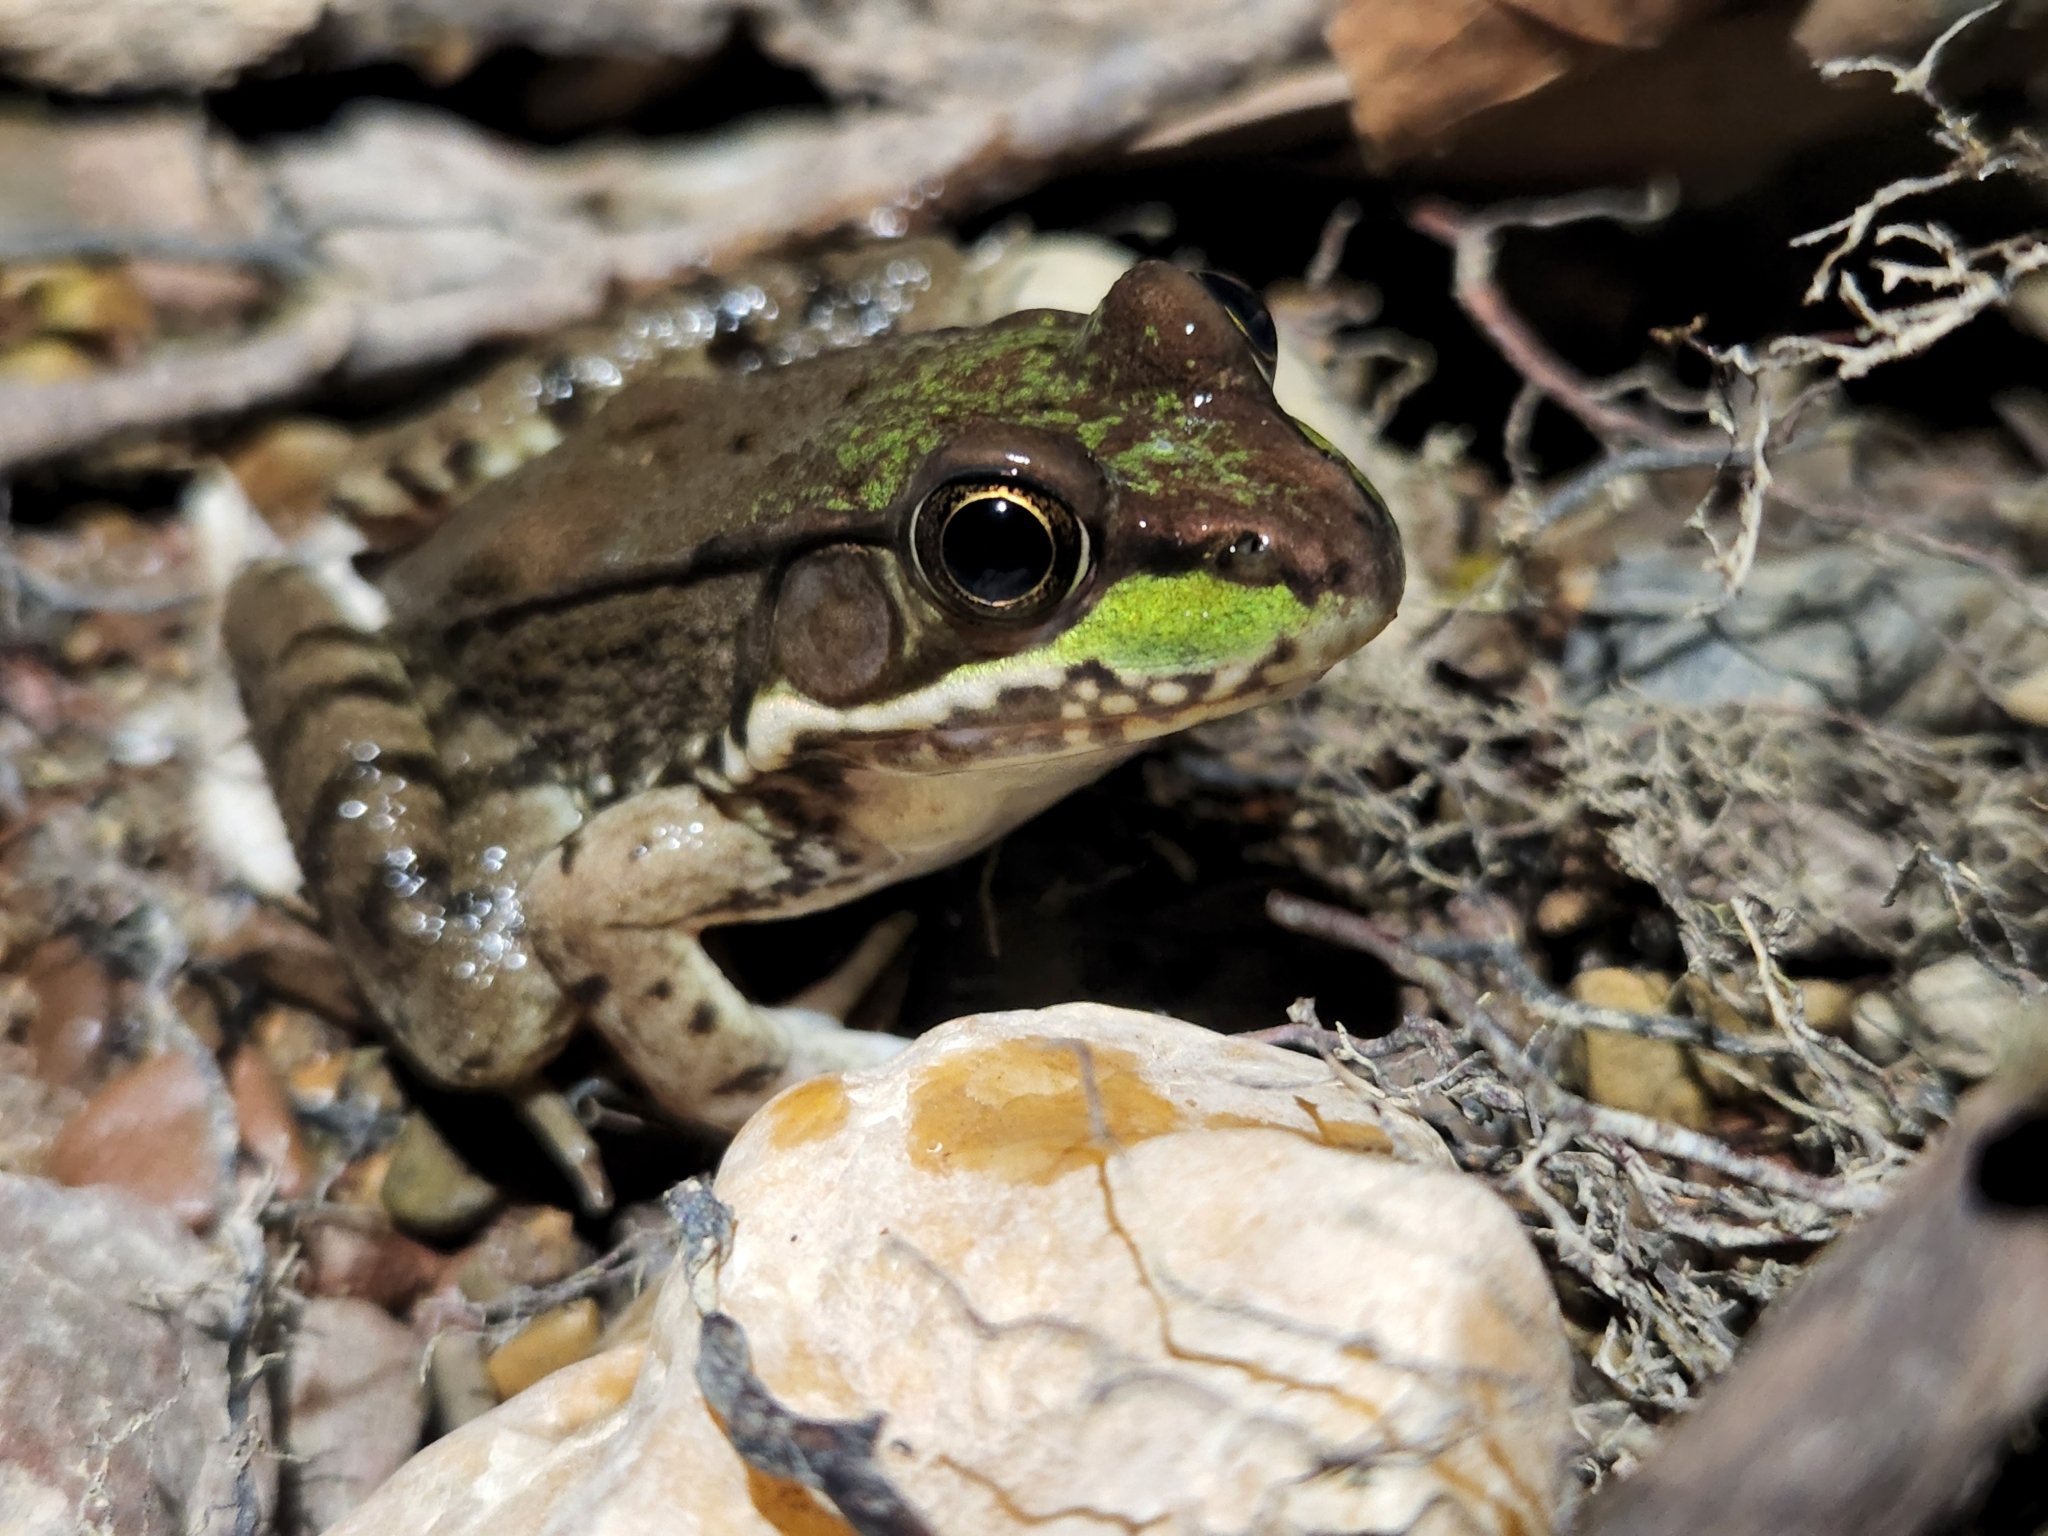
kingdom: Animalia
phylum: Chordata
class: Amphibia
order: Anura
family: Ranidae
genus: Lithobates
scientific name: Lithobates clamitans
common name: Green frog
